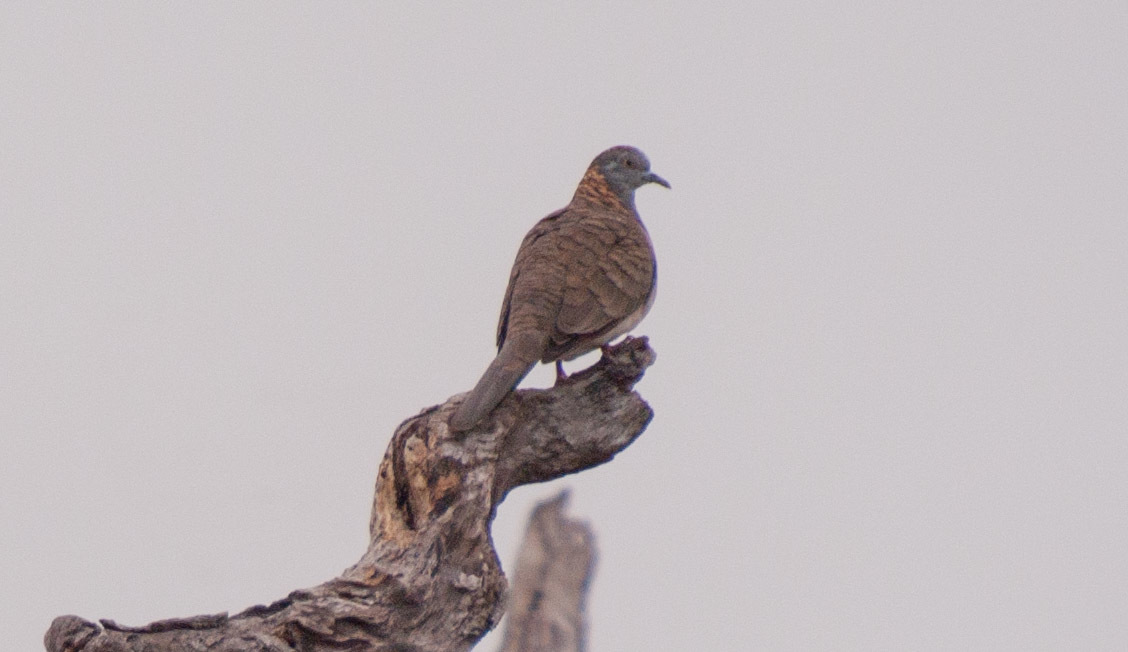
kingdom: Animalia
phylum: Chordata
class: Aves
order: Columbiformes
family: Columbidae
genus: Geopelia
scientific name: Geopelia humeralis
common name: Bar-shouldered dove
